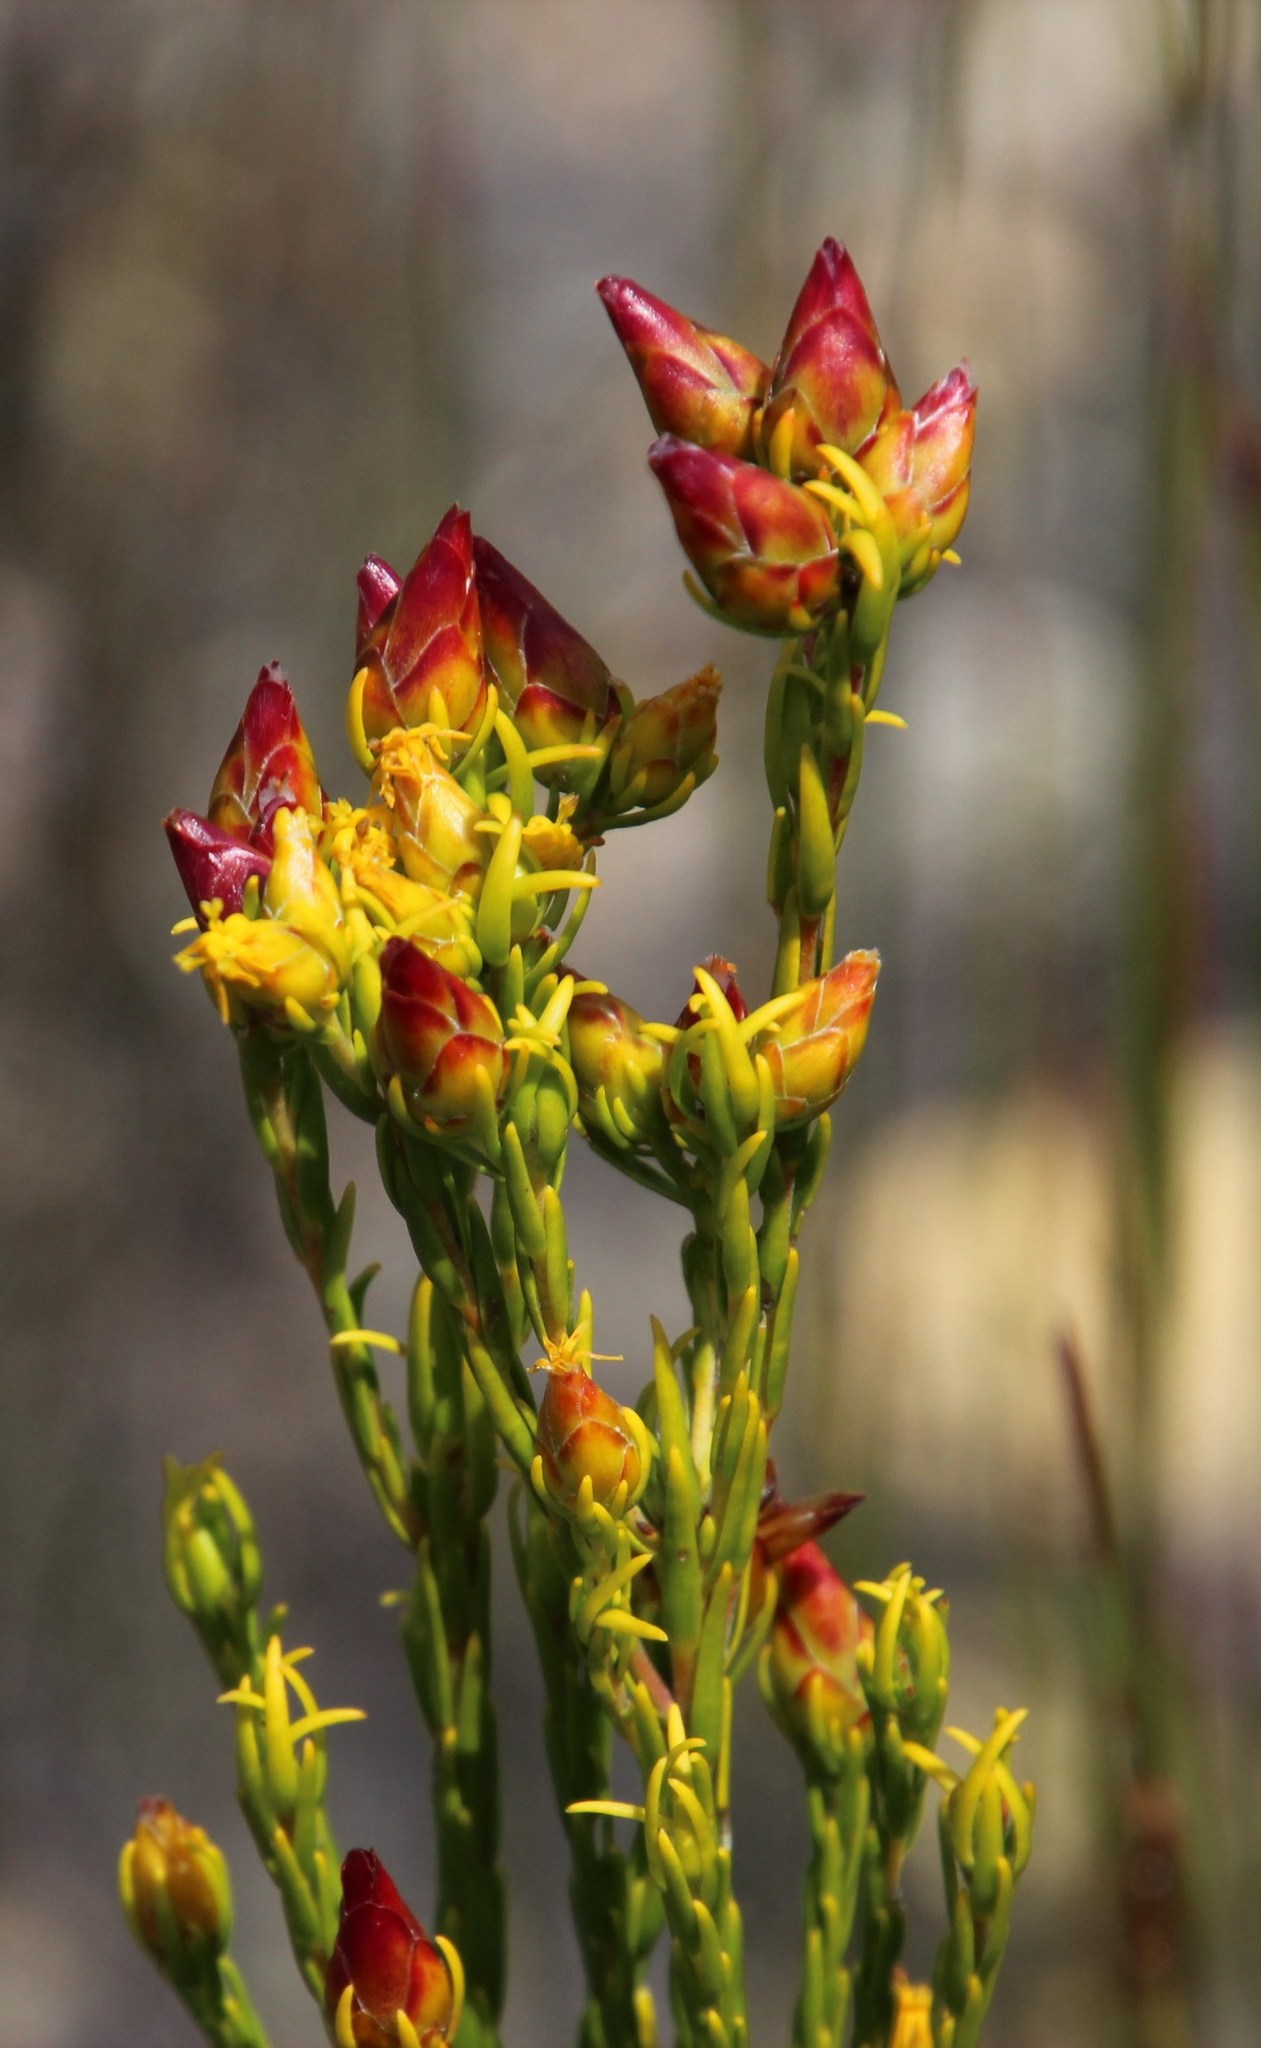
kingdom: Plantae
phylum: Tracheophyta
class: Magnoliopsida
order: Proteales
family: Proteaceae
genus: Leucadendron
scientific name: Leucadendron olens
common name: Yellow conebush
